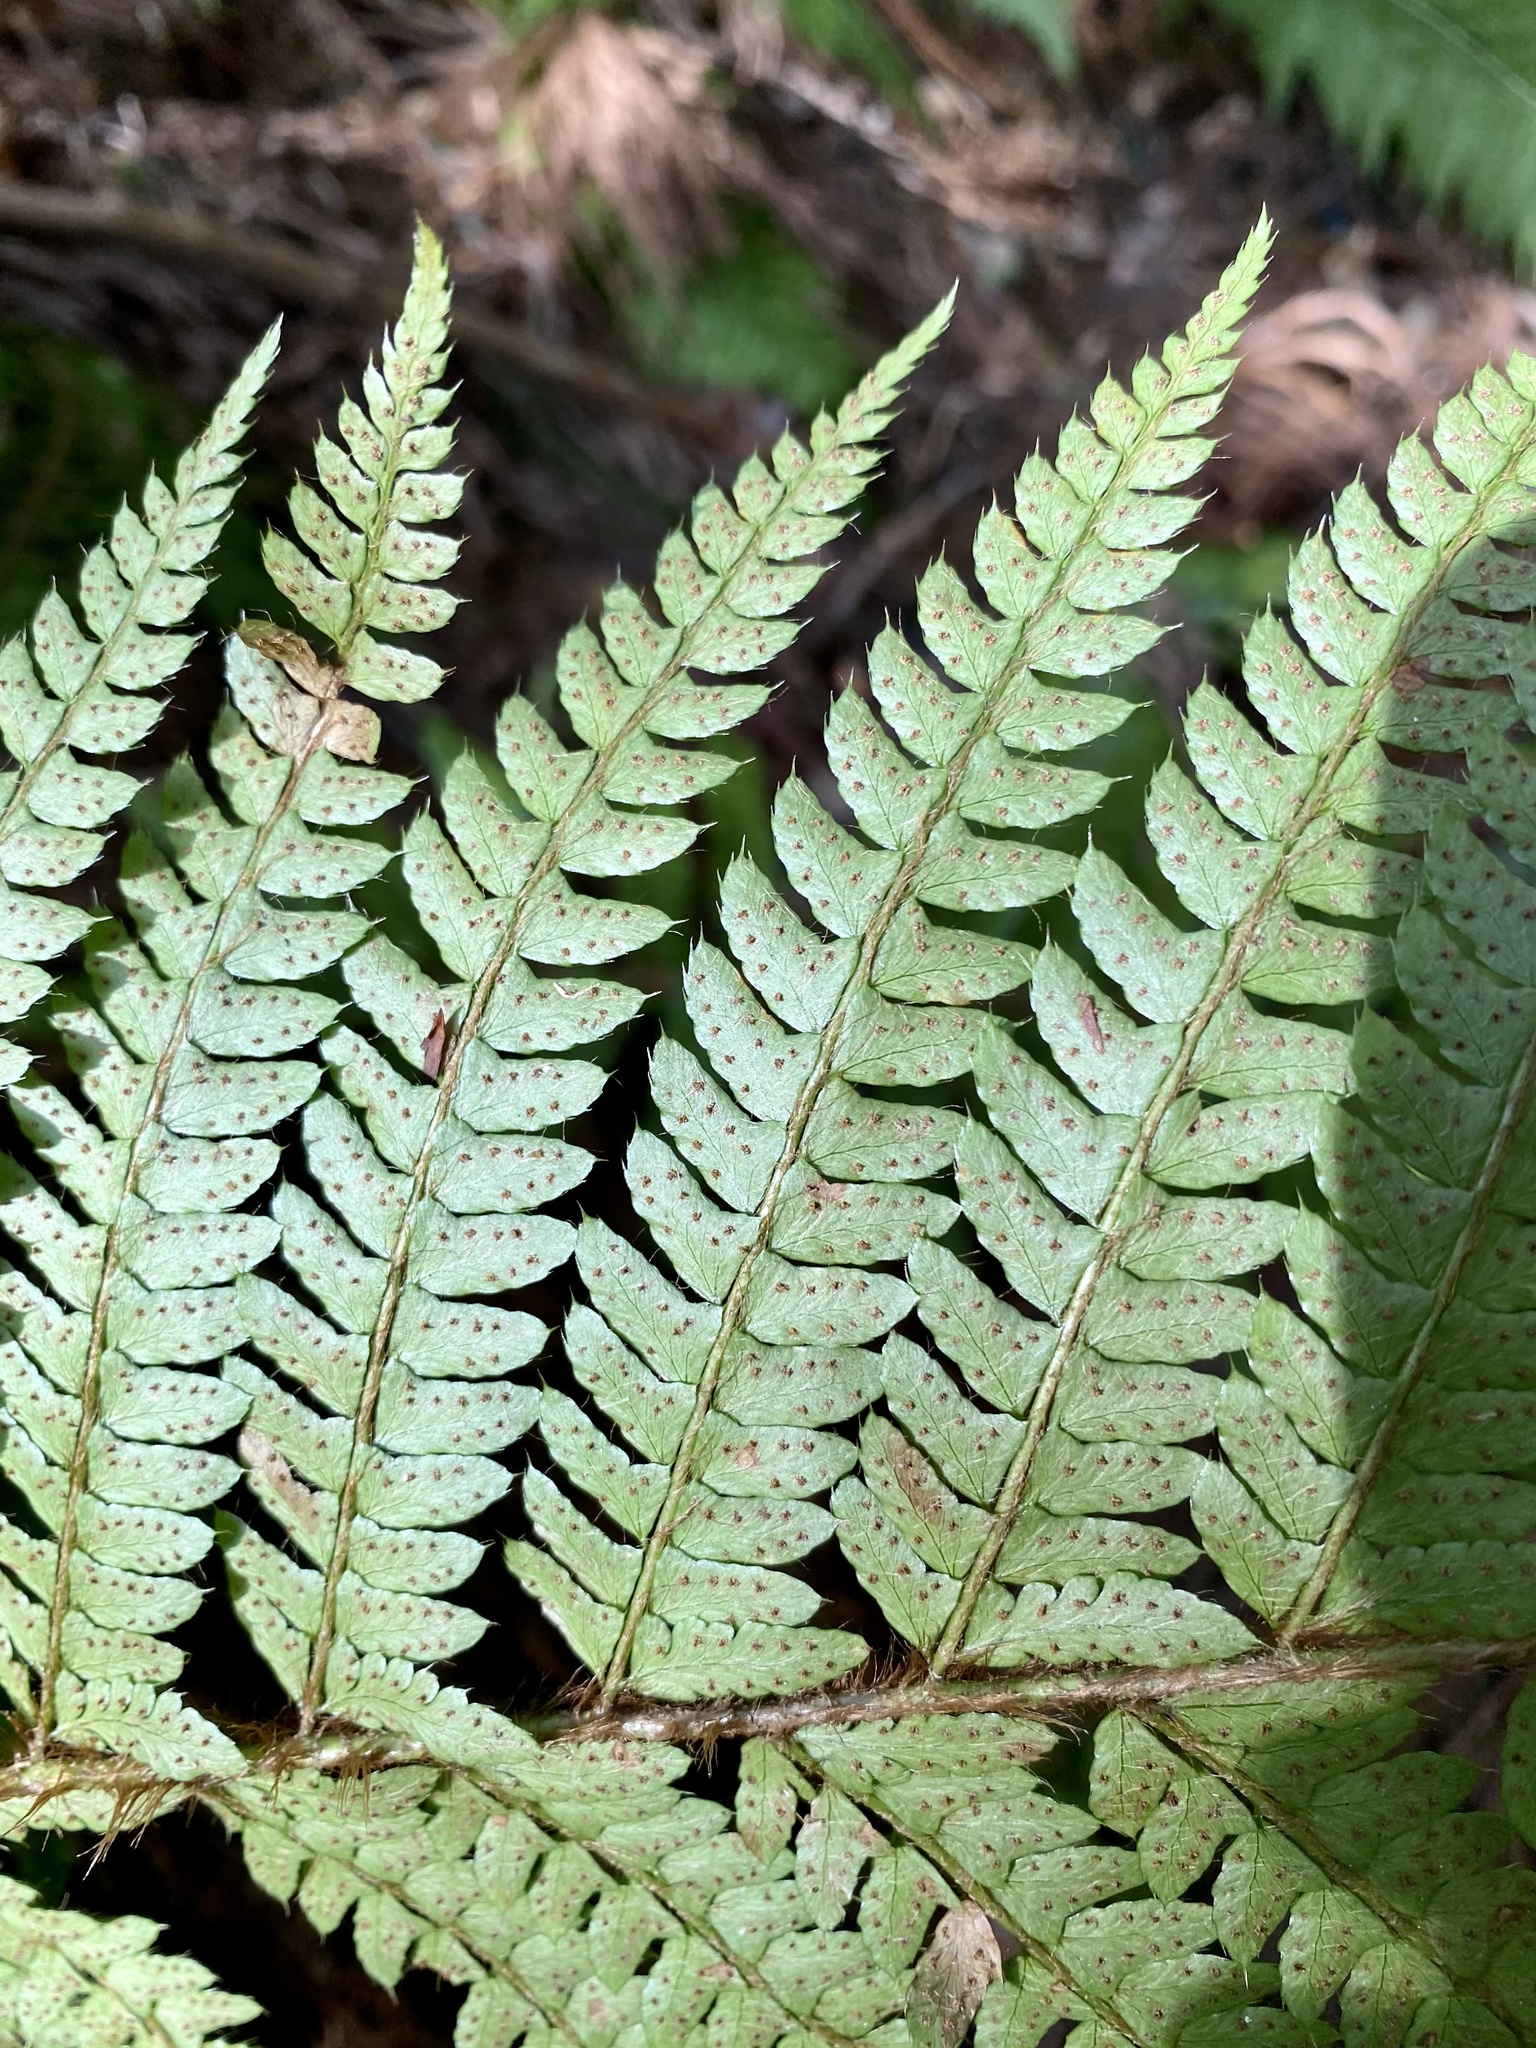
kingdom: Plantae
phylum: Tracheophyta
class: Polypodiopsida
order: Polypodiales
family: Dryopteridaceae
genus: Polystichum
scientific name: Polystichum luctuosum
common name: Korean rockfern
